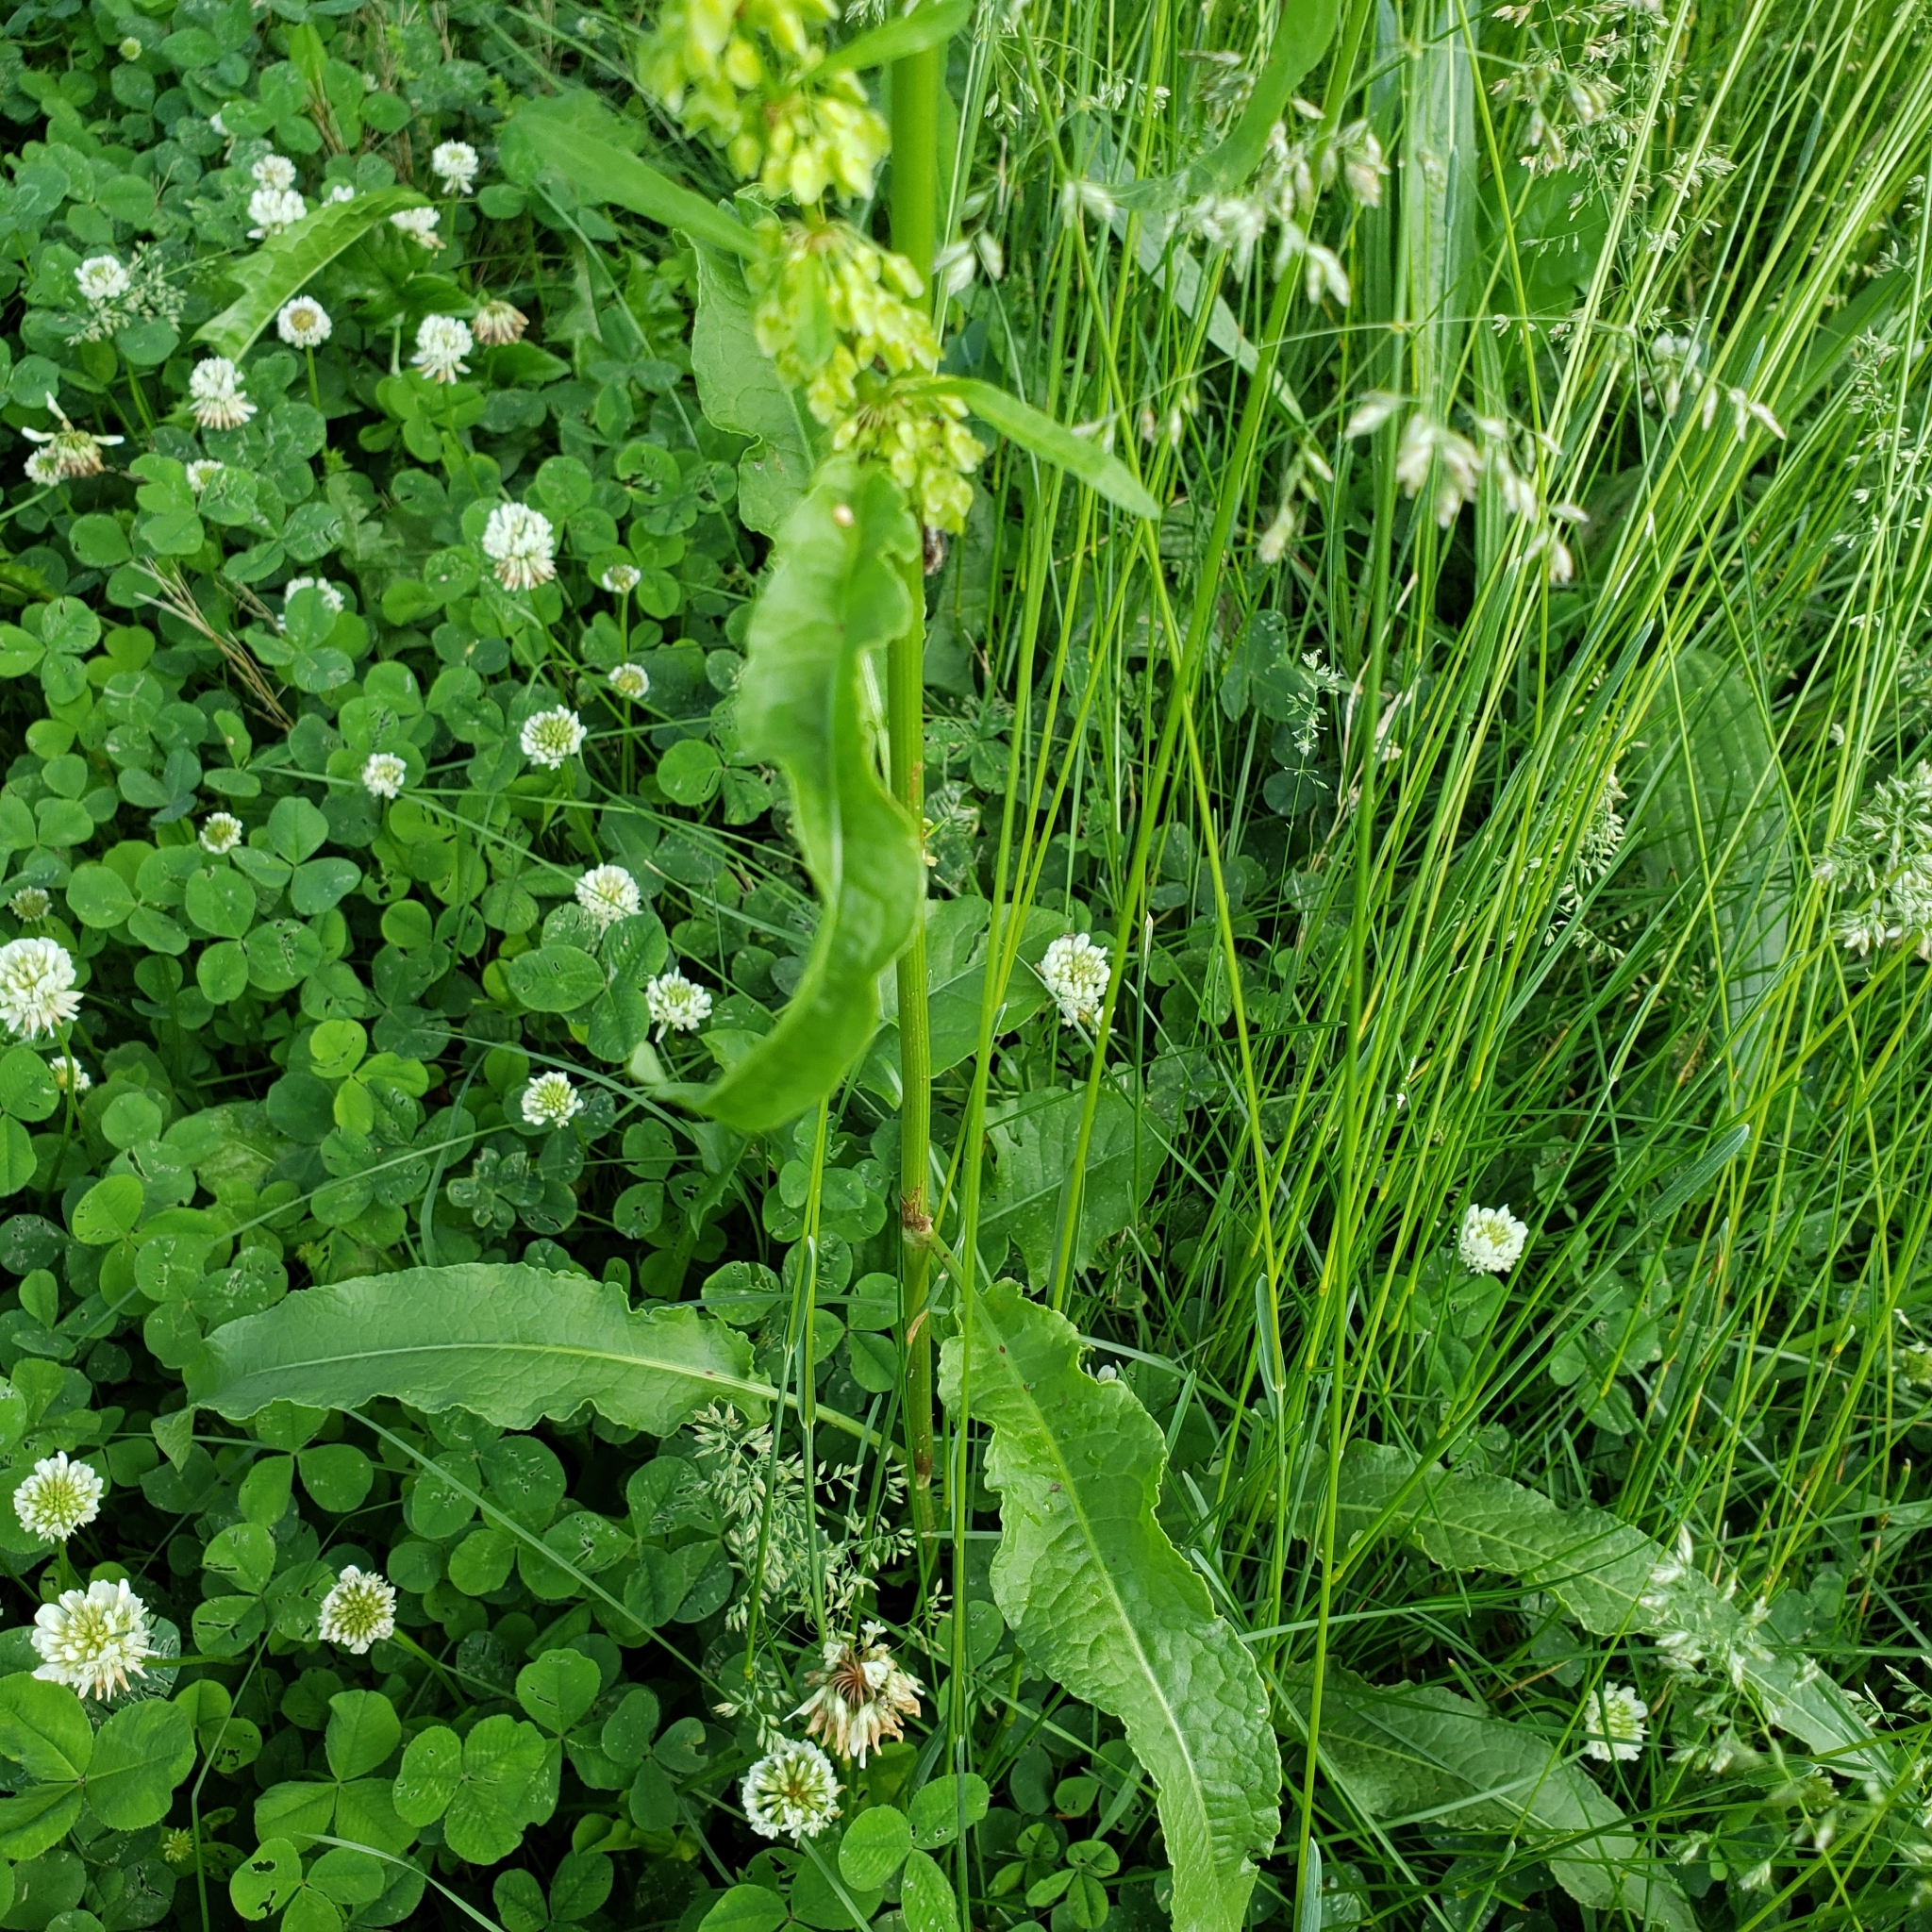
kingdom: Plantae
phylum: Tracheophyta
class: Magnoliopsida
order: Caryophyllales
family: Polygonaceae
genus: Rumex
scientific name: Rumex crispus
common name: Curled dock
